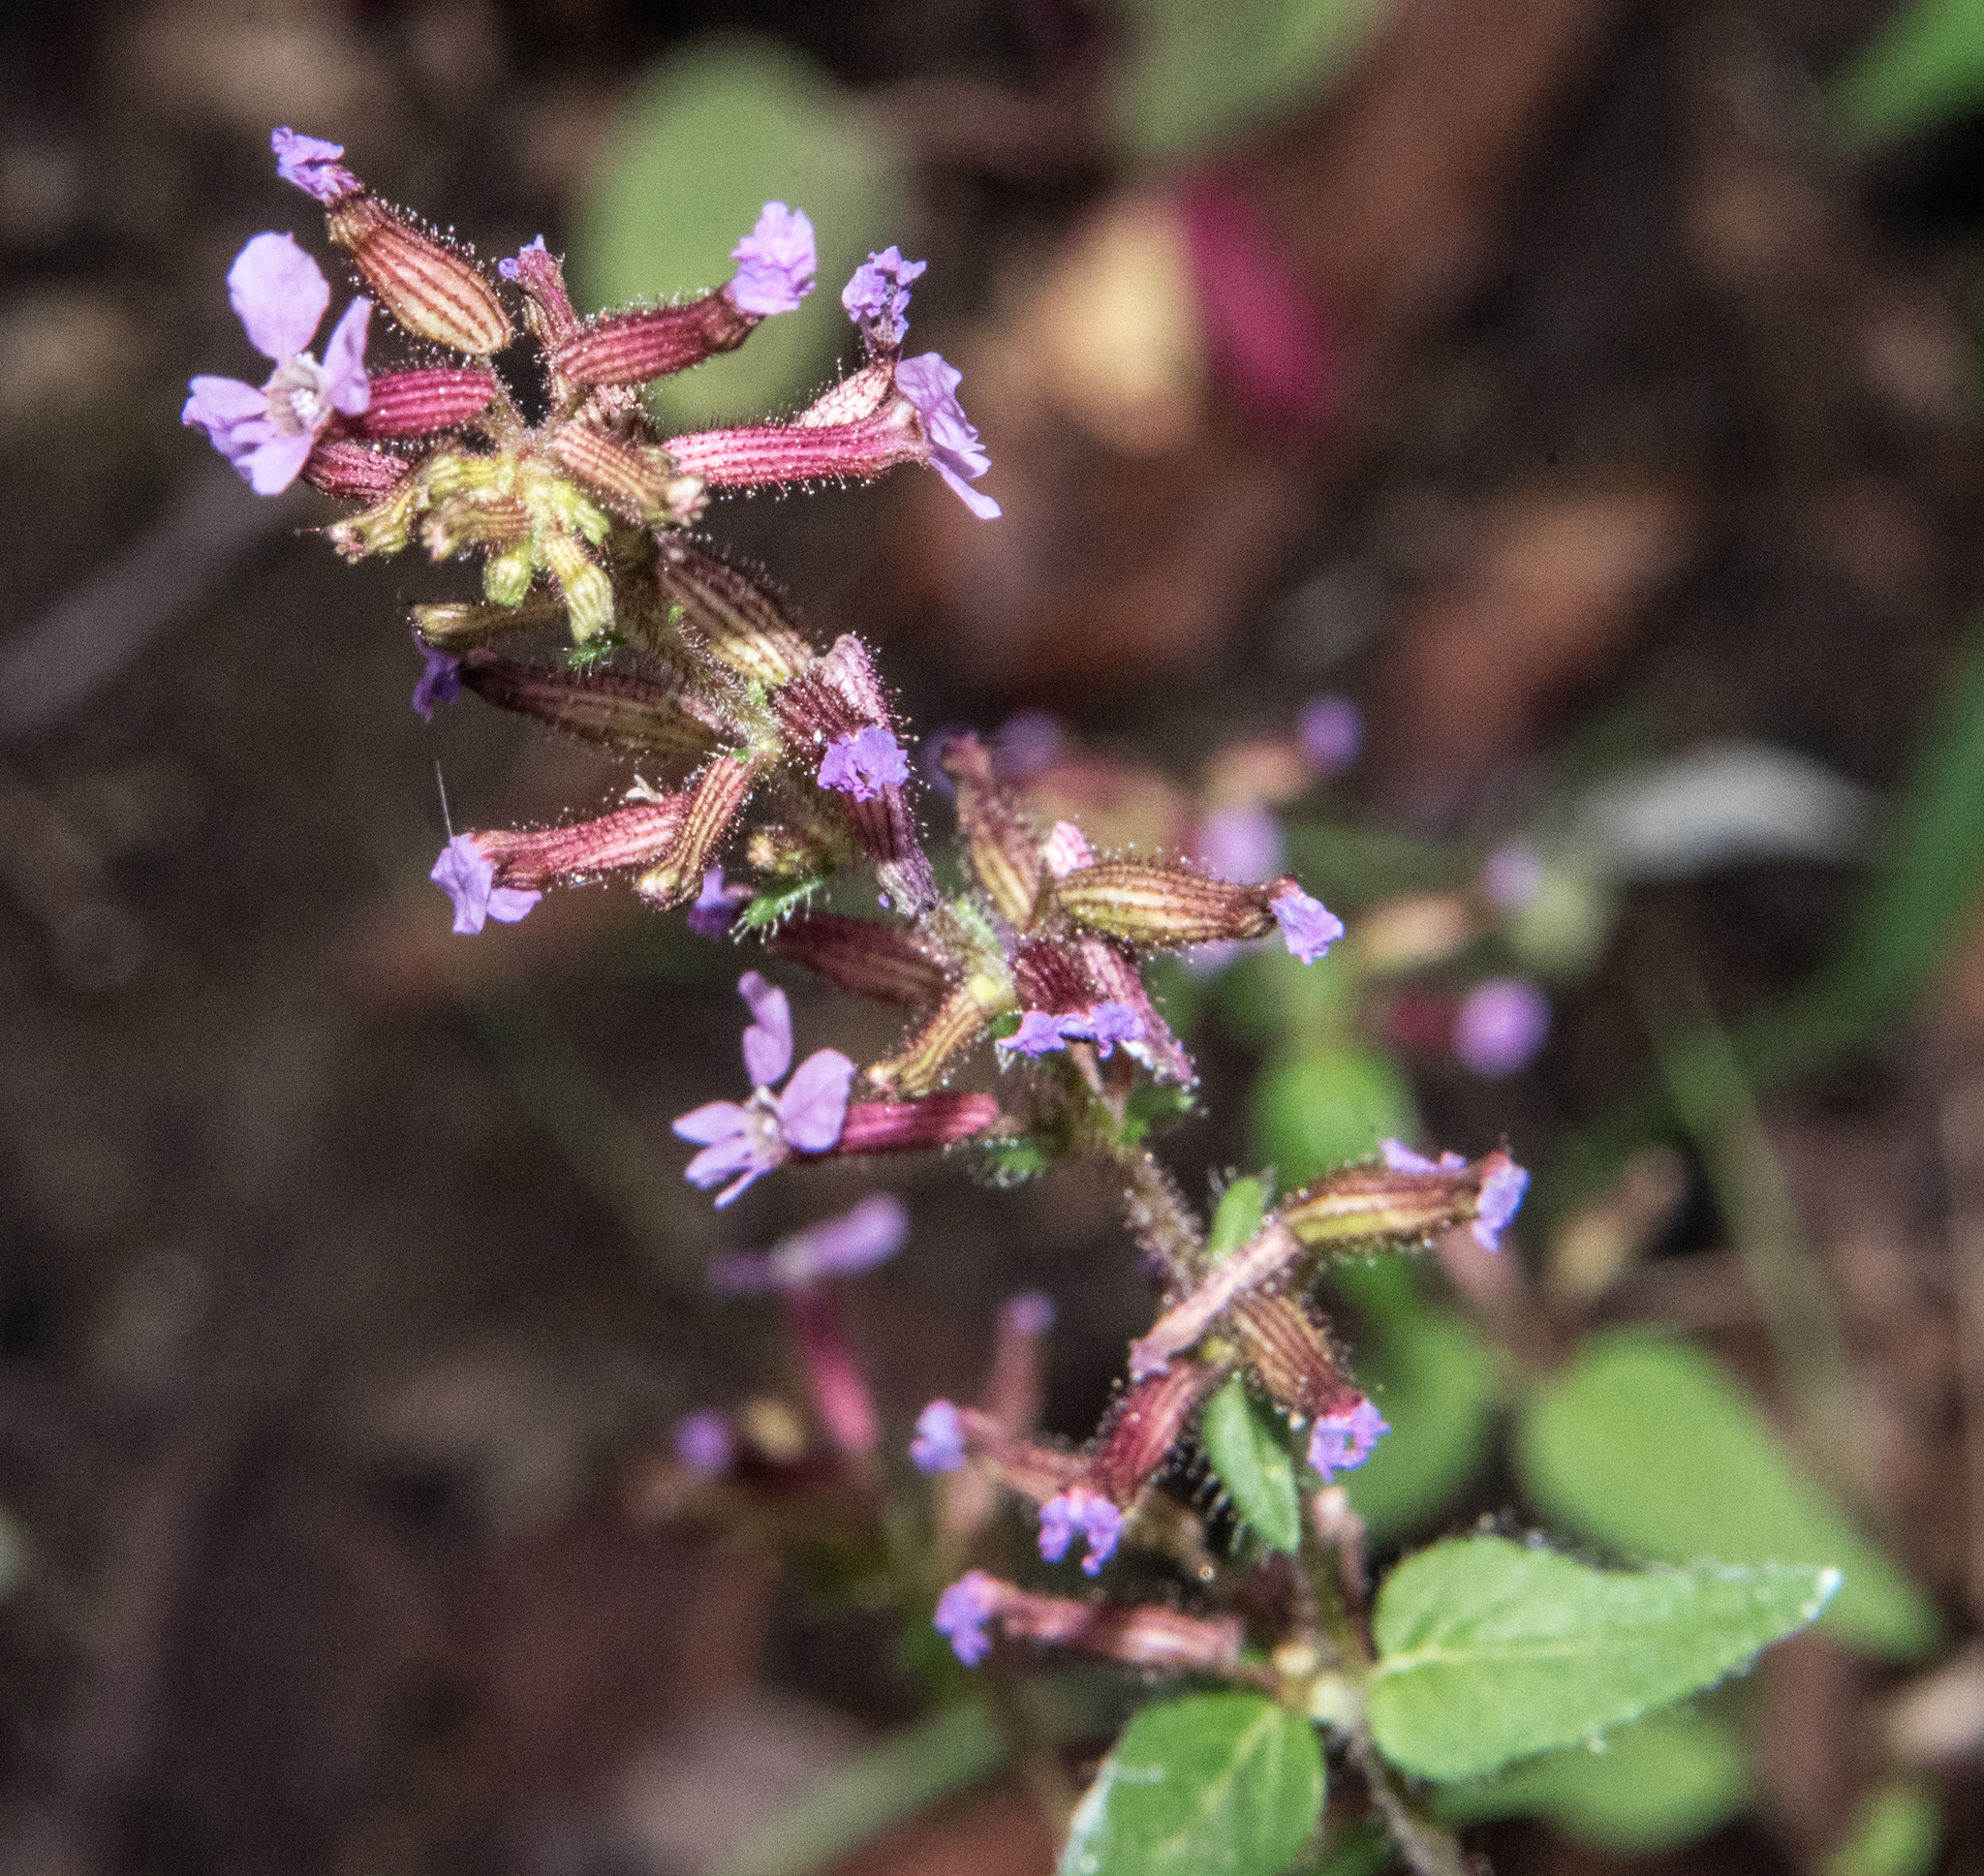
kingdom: Plantae
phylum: Tracheophyta
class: Magnoliopsida
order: Myrtales
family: Lythraceae
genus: Cuphea
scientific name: Cuphea wrightii
